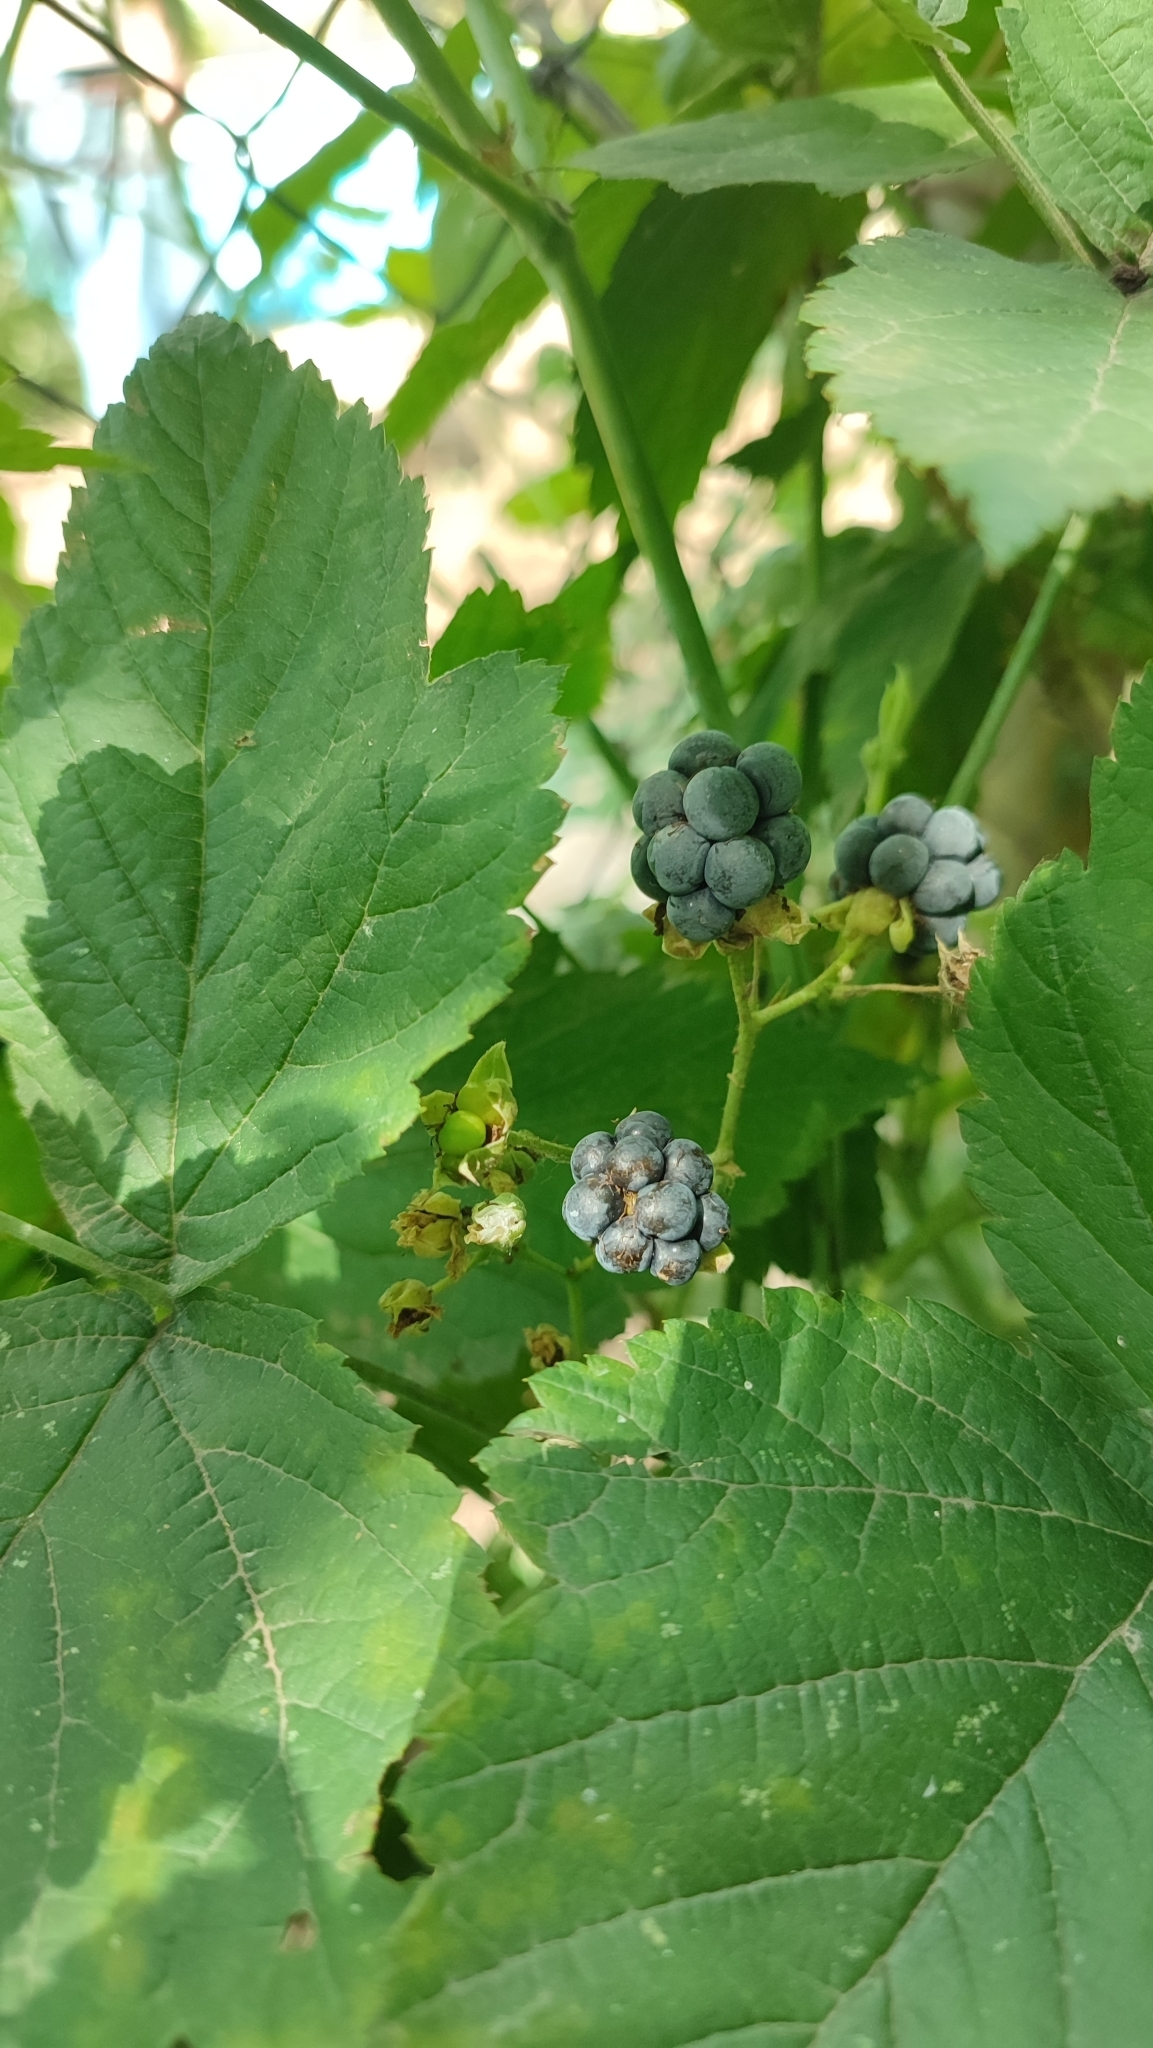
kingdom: Plantae
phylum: Tracheophyta
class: Magnoliopsida
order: Rosales
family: Rosaceae
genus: Rubus
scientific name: Rubus caesius
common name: Dewberry
